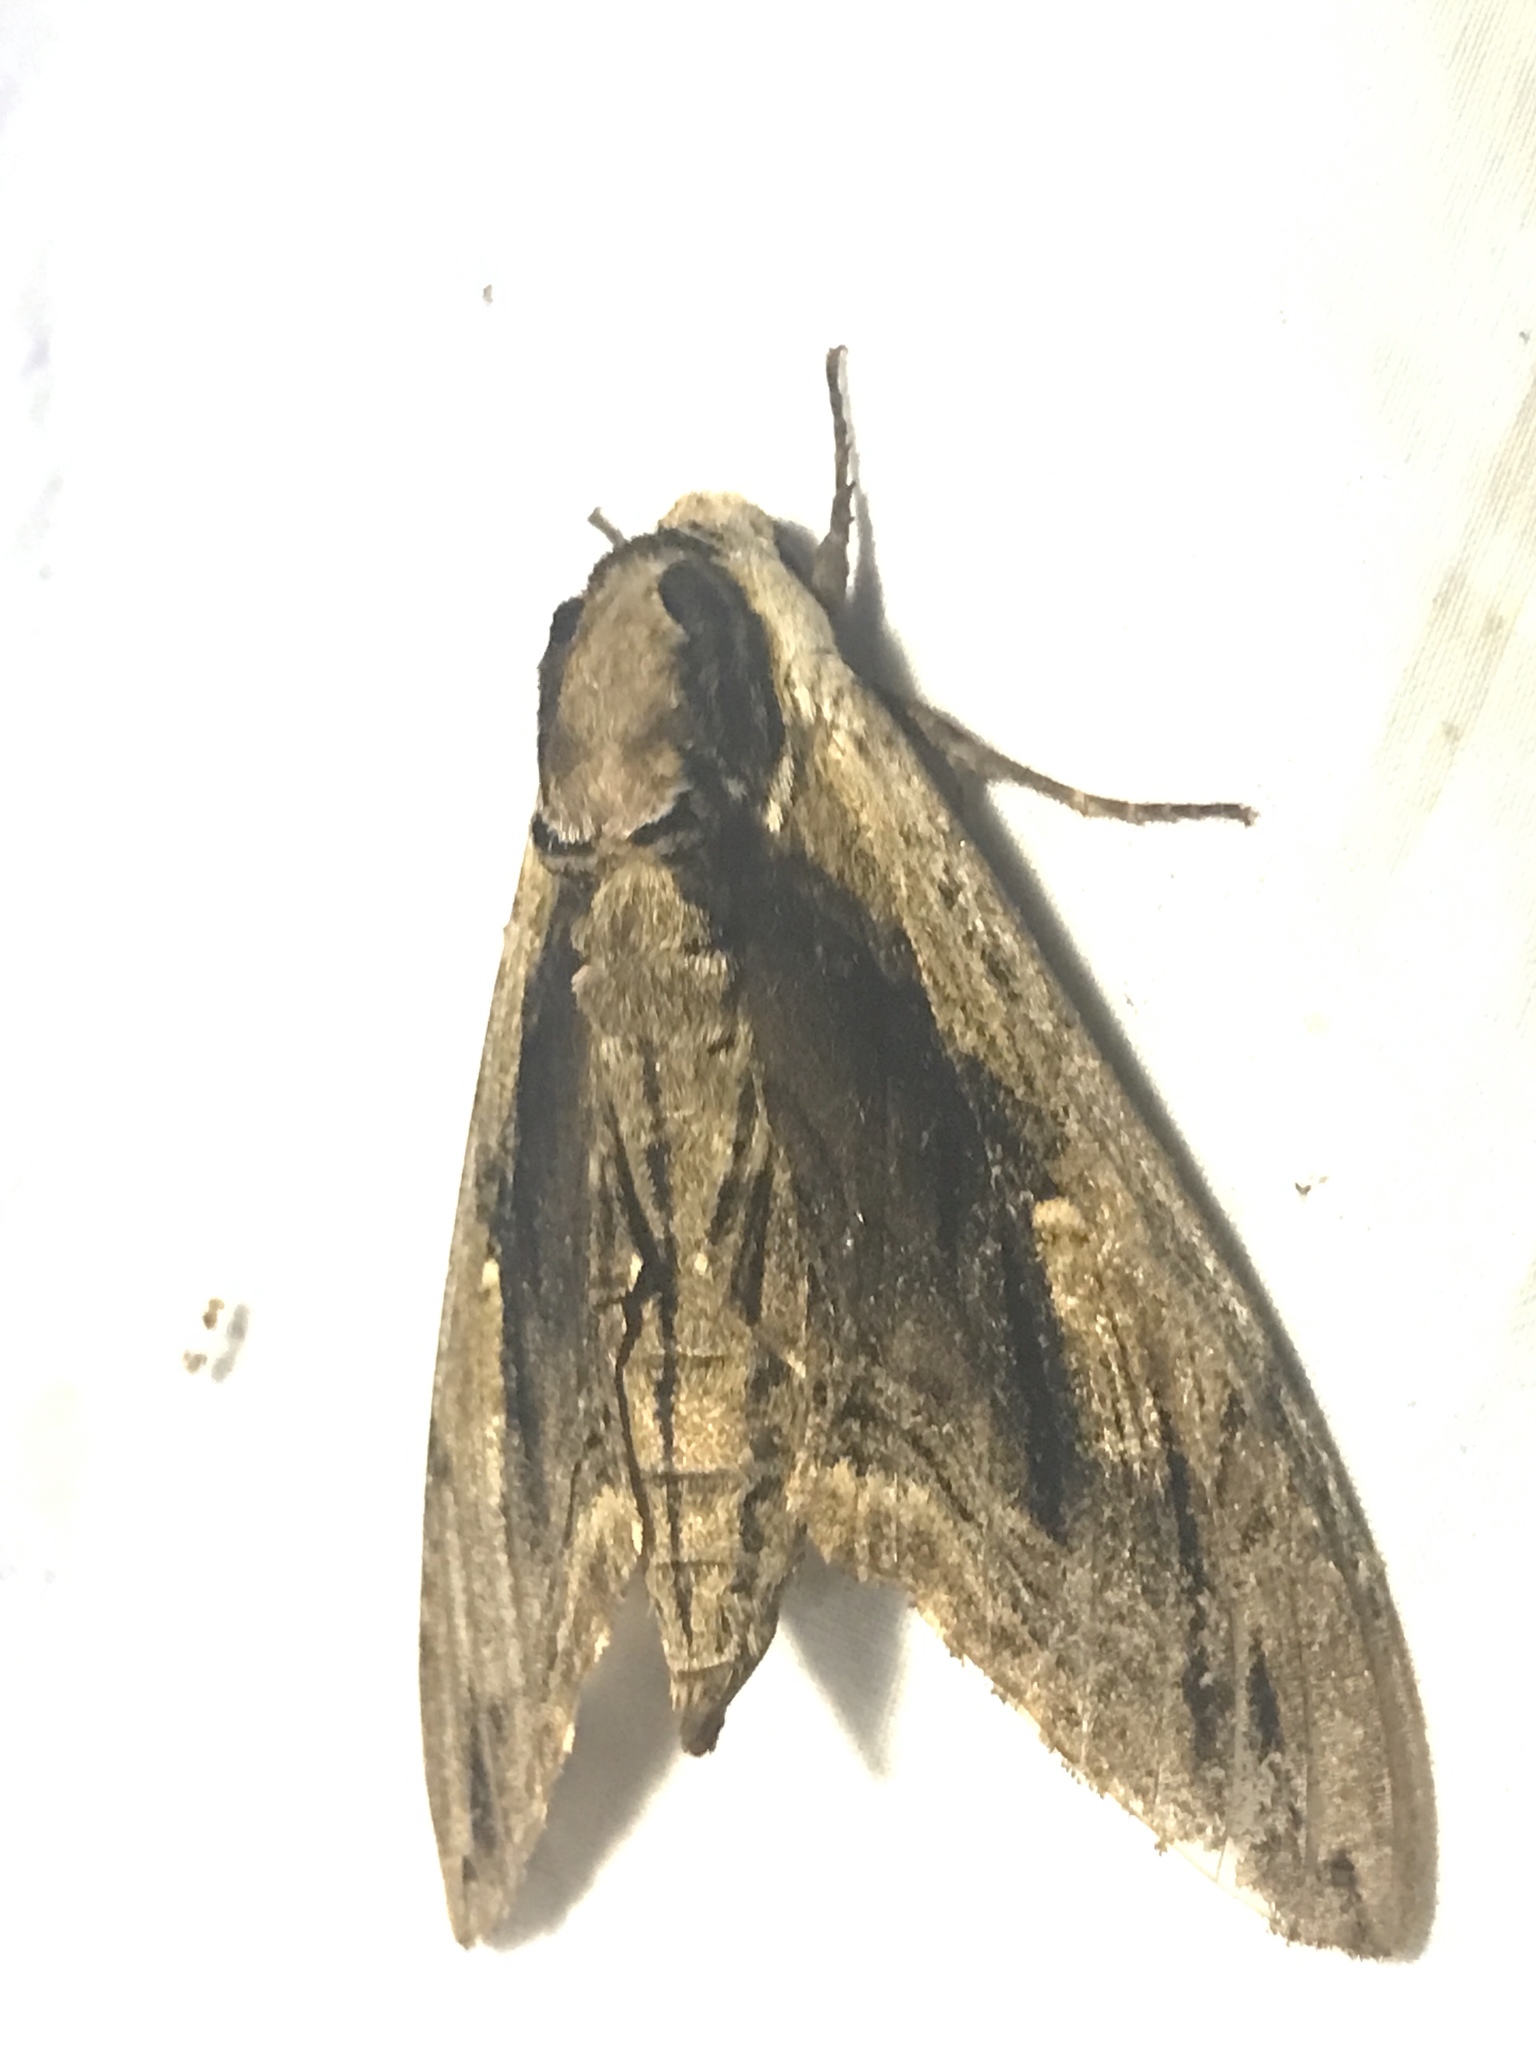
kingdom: Animalia
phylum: Arthropoda
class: Insecta
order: Lepidoptera
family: Sphingidae
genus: Ceratomia
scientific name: Ceratomia amyntor
